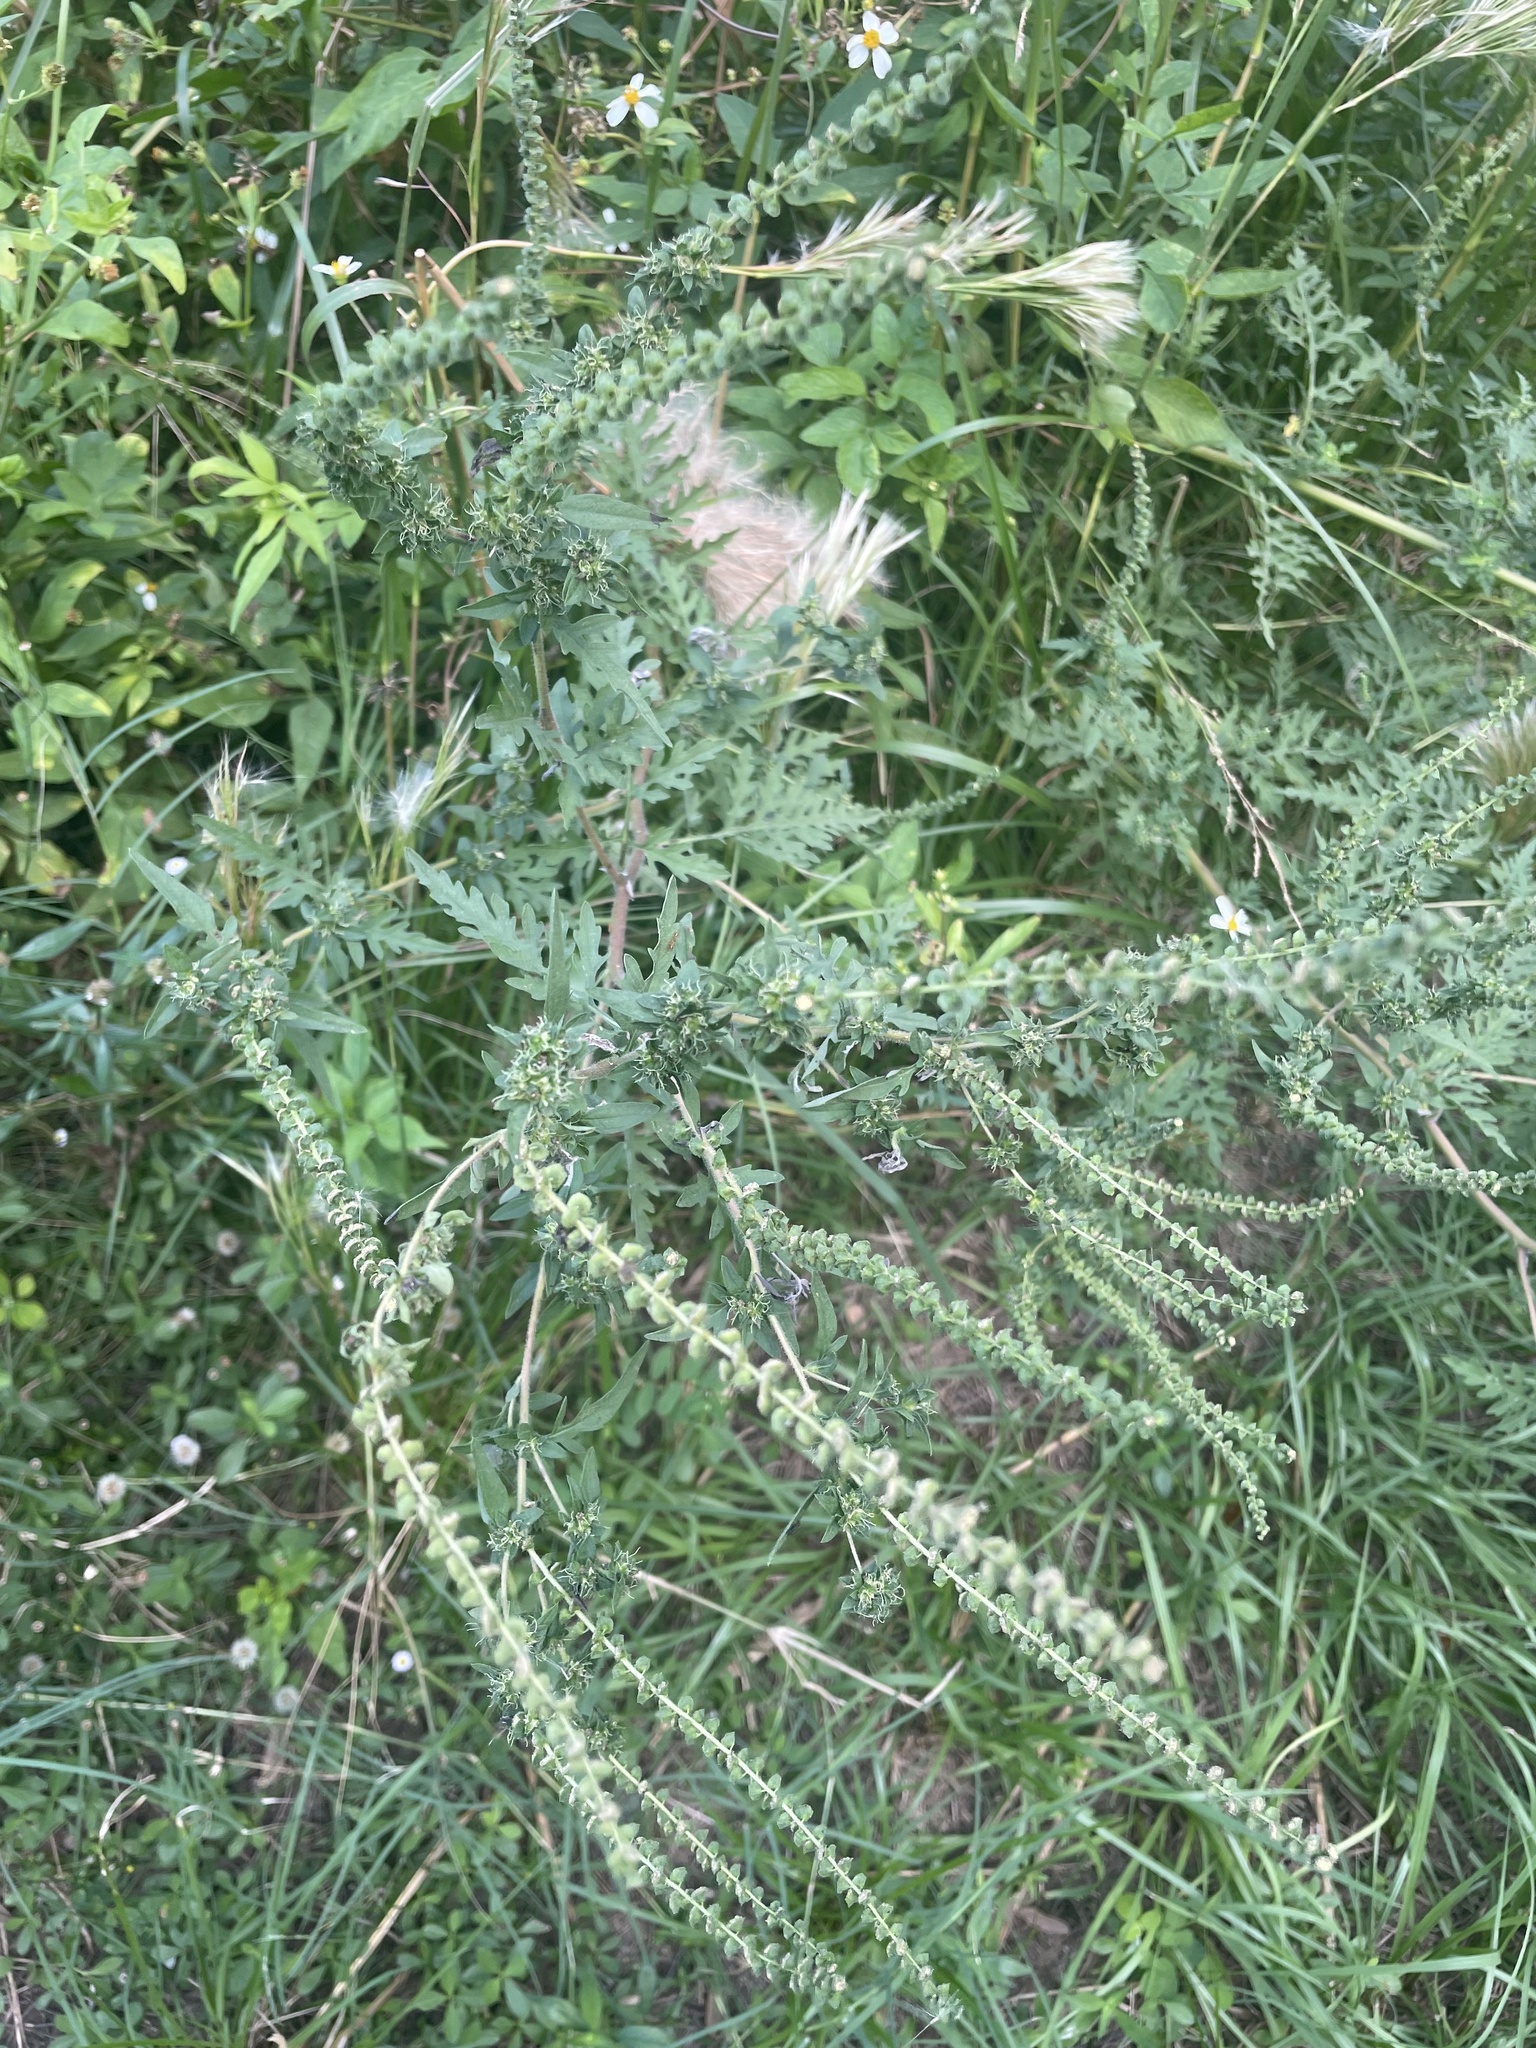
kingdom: Plantae
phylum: Tracheophyta
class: Magnoliopsida
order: Asterales
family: Asteraceae
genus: Ambrosia
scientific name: Ambrosia artemisiifolia
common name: Annual ragweed
